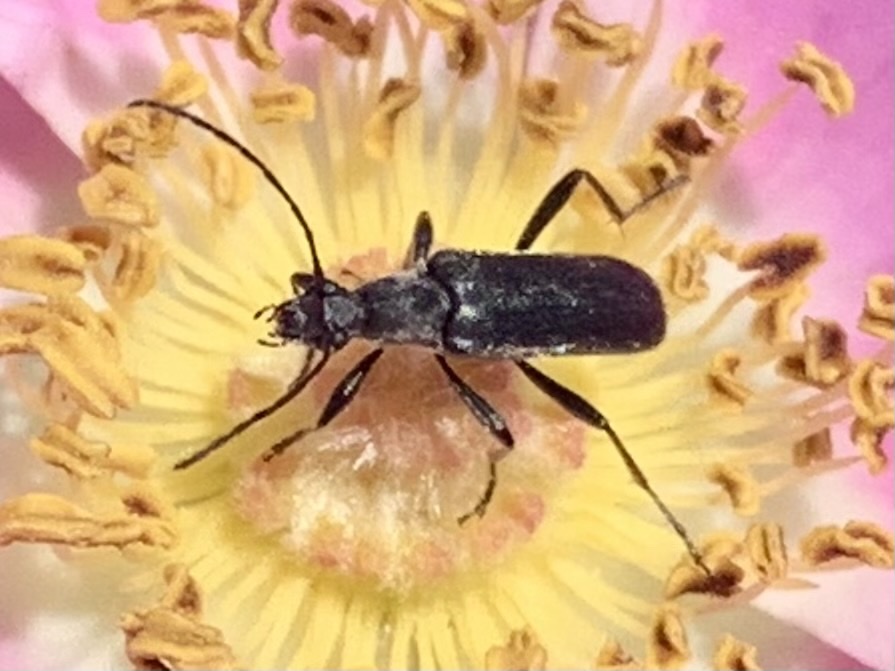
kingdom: Animalia
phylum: Arthropoda
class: Insecta
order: Coleoptera
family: Cerambycidae
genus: Grammoptera
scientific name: Grammoptera subargentata
